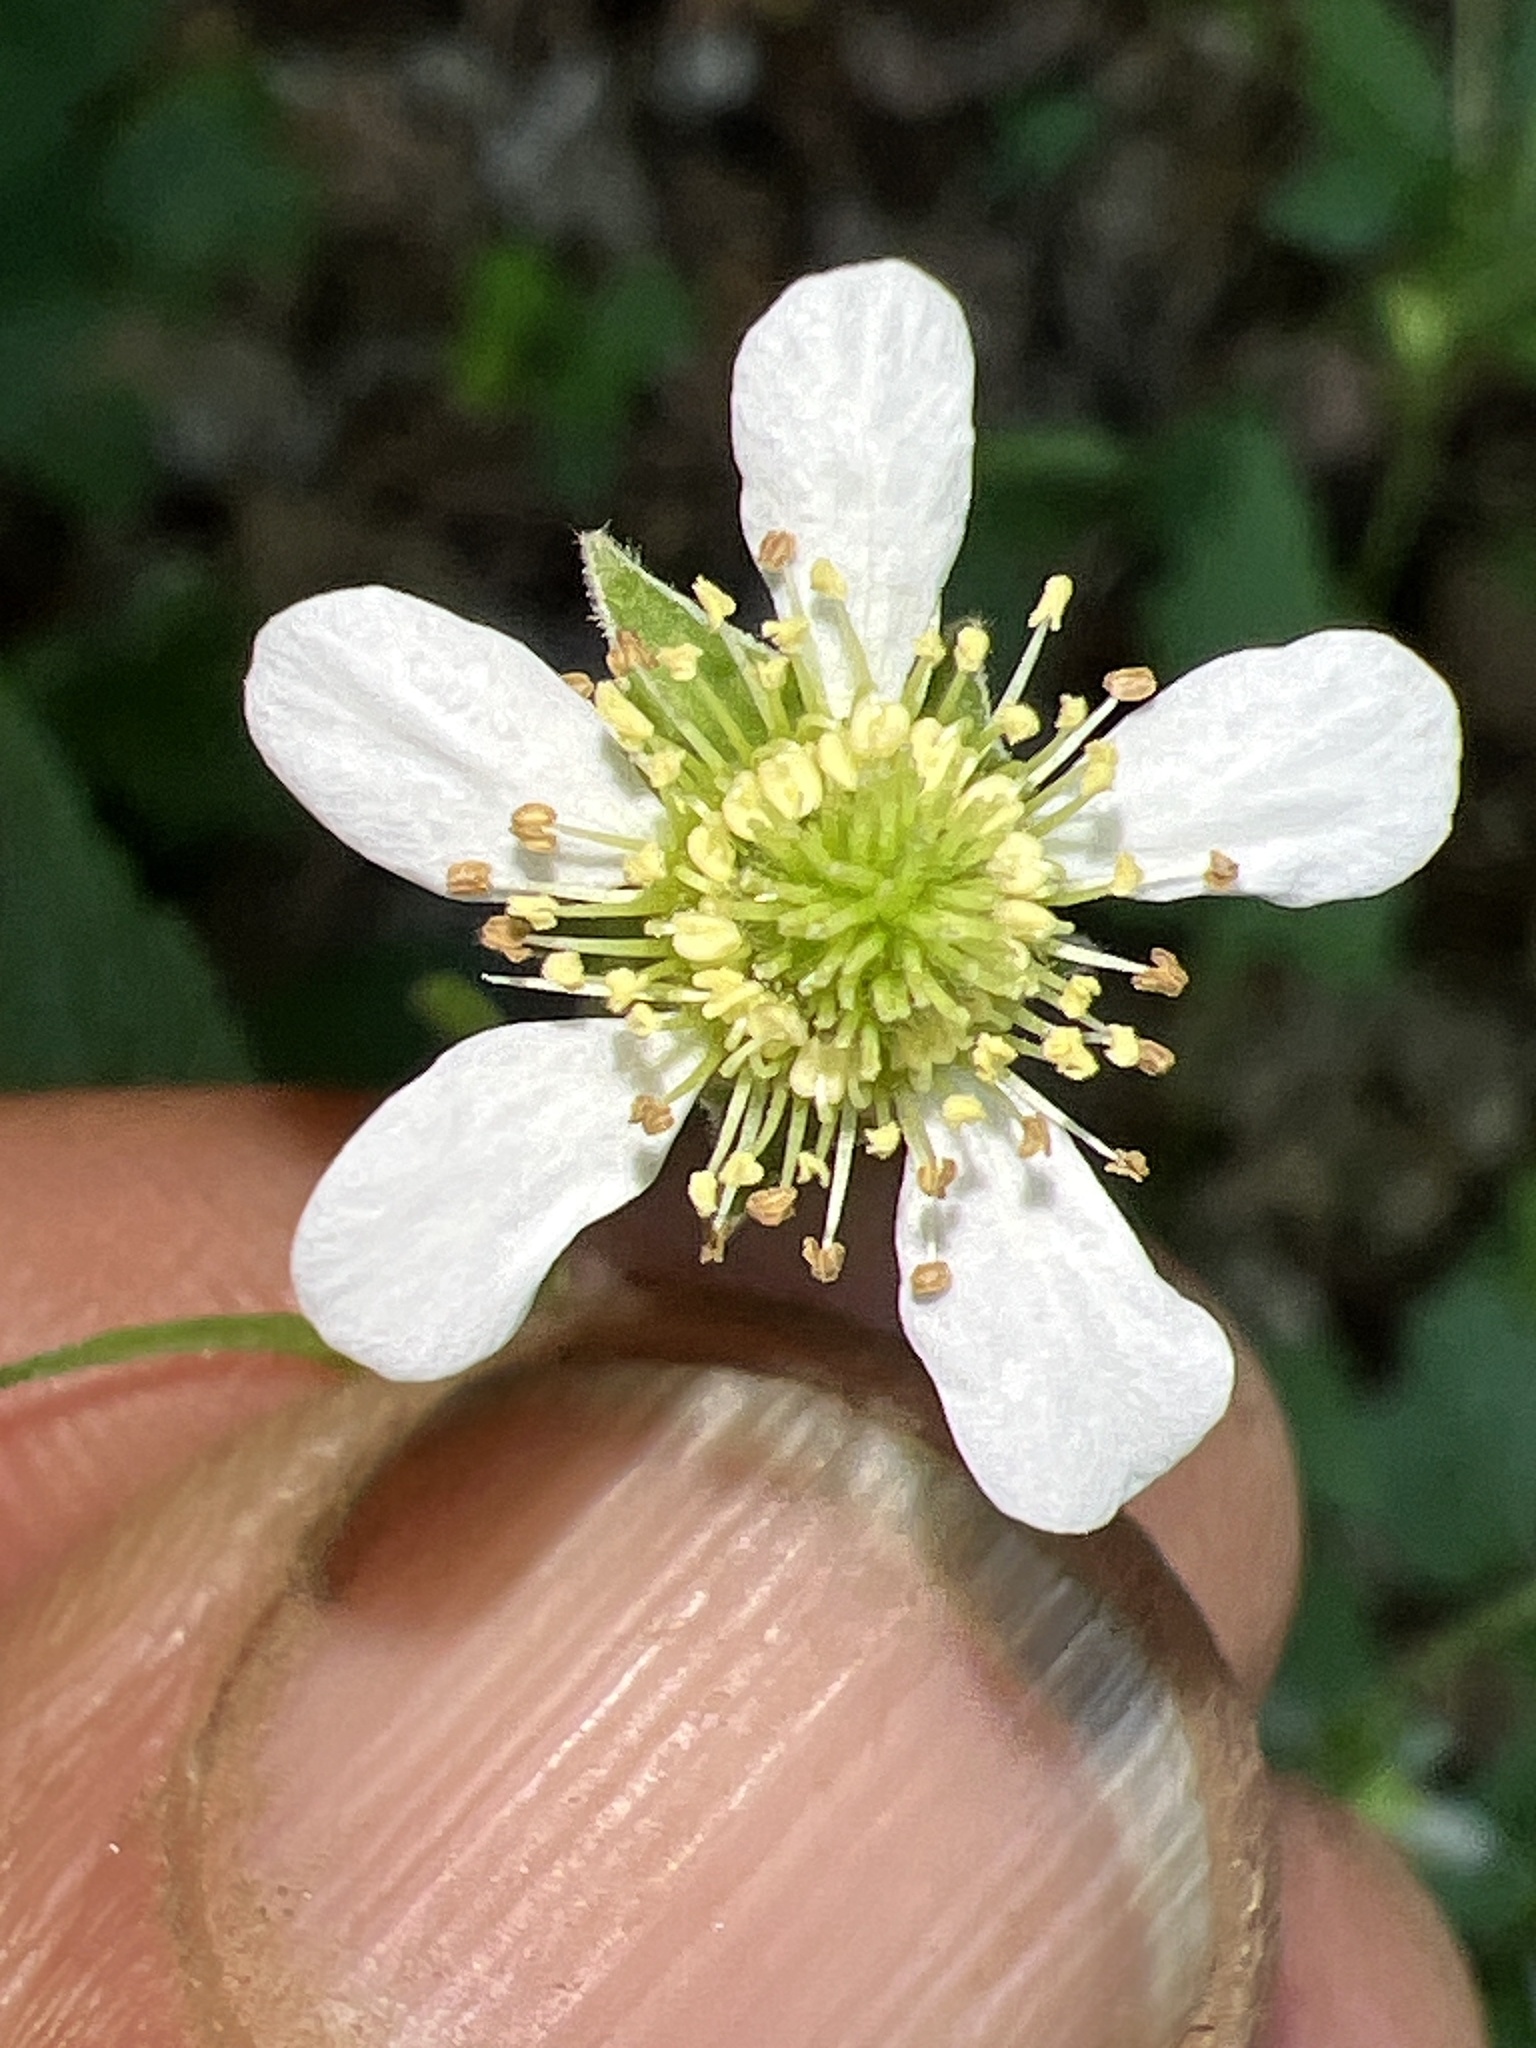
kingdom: Plantae
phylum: Tracheophyta
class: Magnoliopsida
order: Rosales
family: Rosaceae
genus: Geum
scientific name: Geum canadense
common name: White avens
